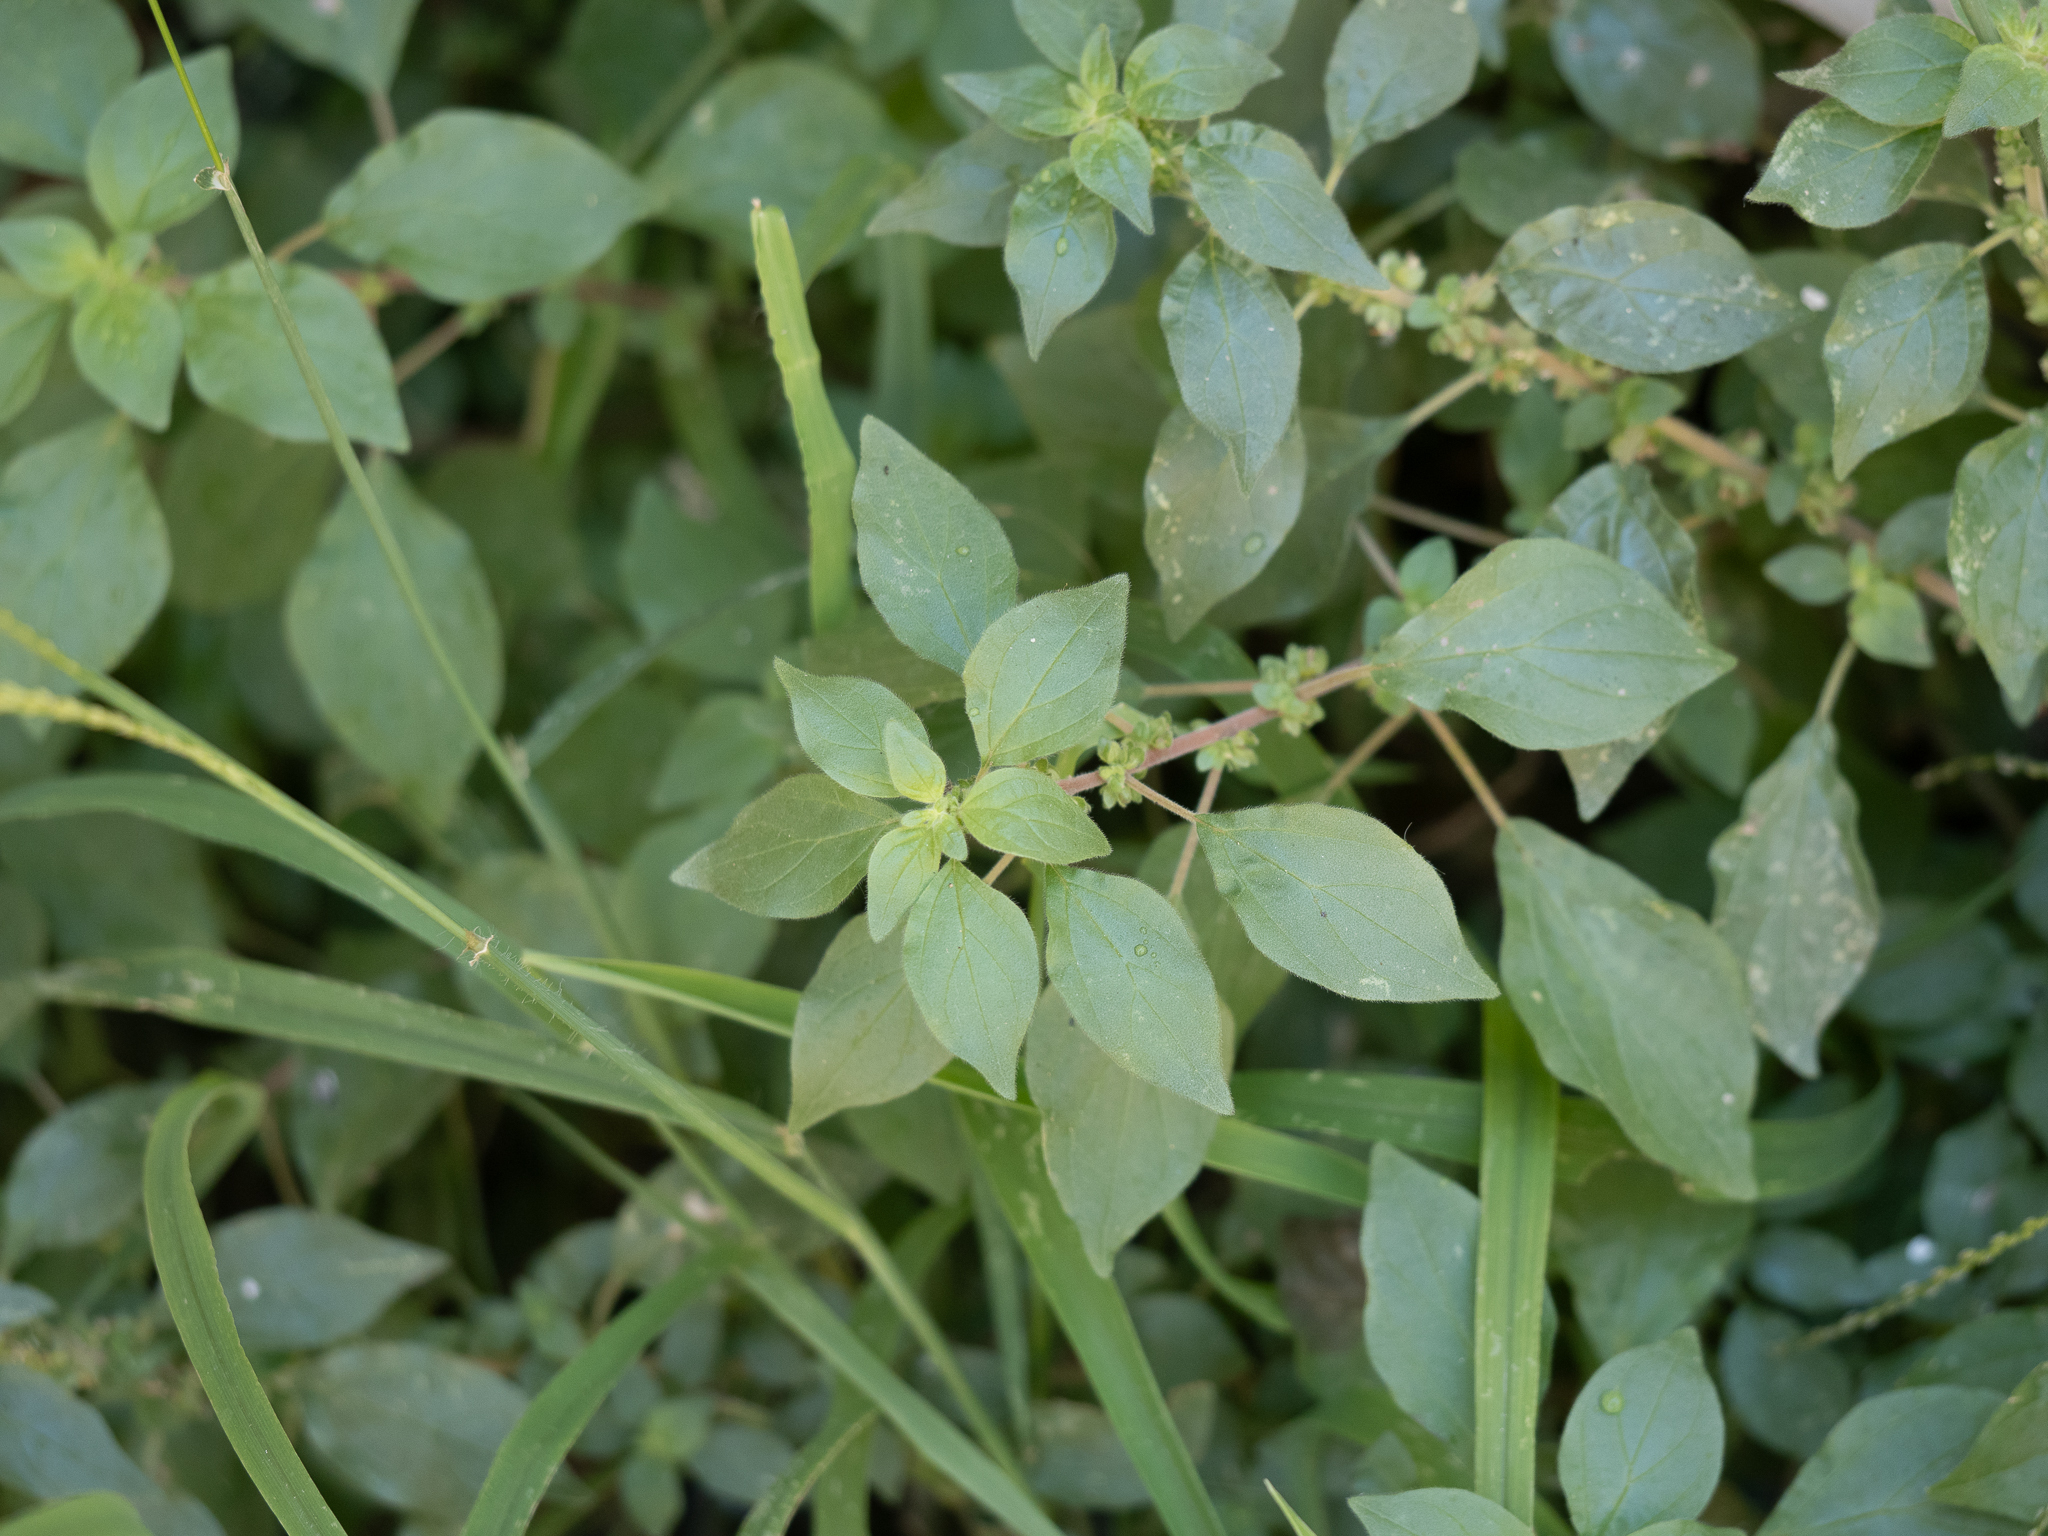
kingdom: Plantae
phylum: Tracheophyta
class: Magnoliopsida
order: Rosales
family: Urticaceae
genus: Parietaria
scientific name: Parietaria judaica
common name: Pellitory-of-the-wall
